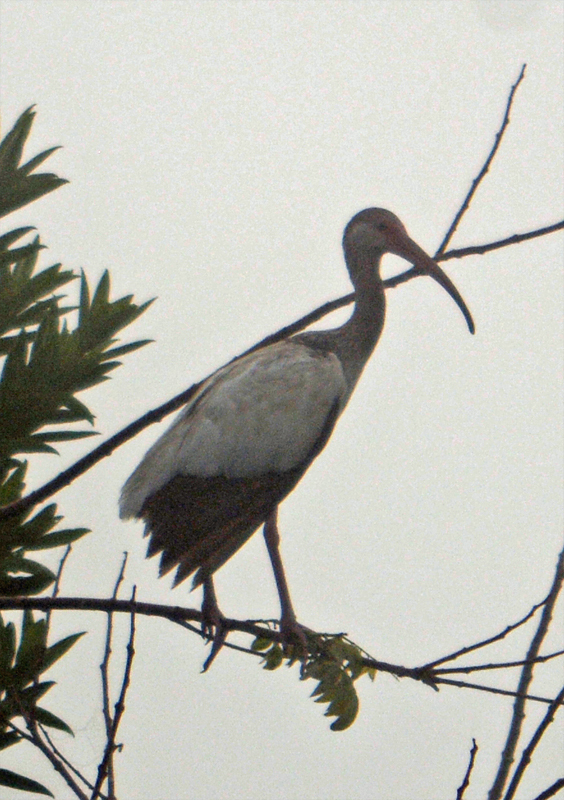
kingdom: Animalia
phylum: Chordata
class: Aves
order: Pelecaniformes
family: Threskiornithidae
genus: Eudocimus
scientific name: Eudocimus albus
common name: White ibis
